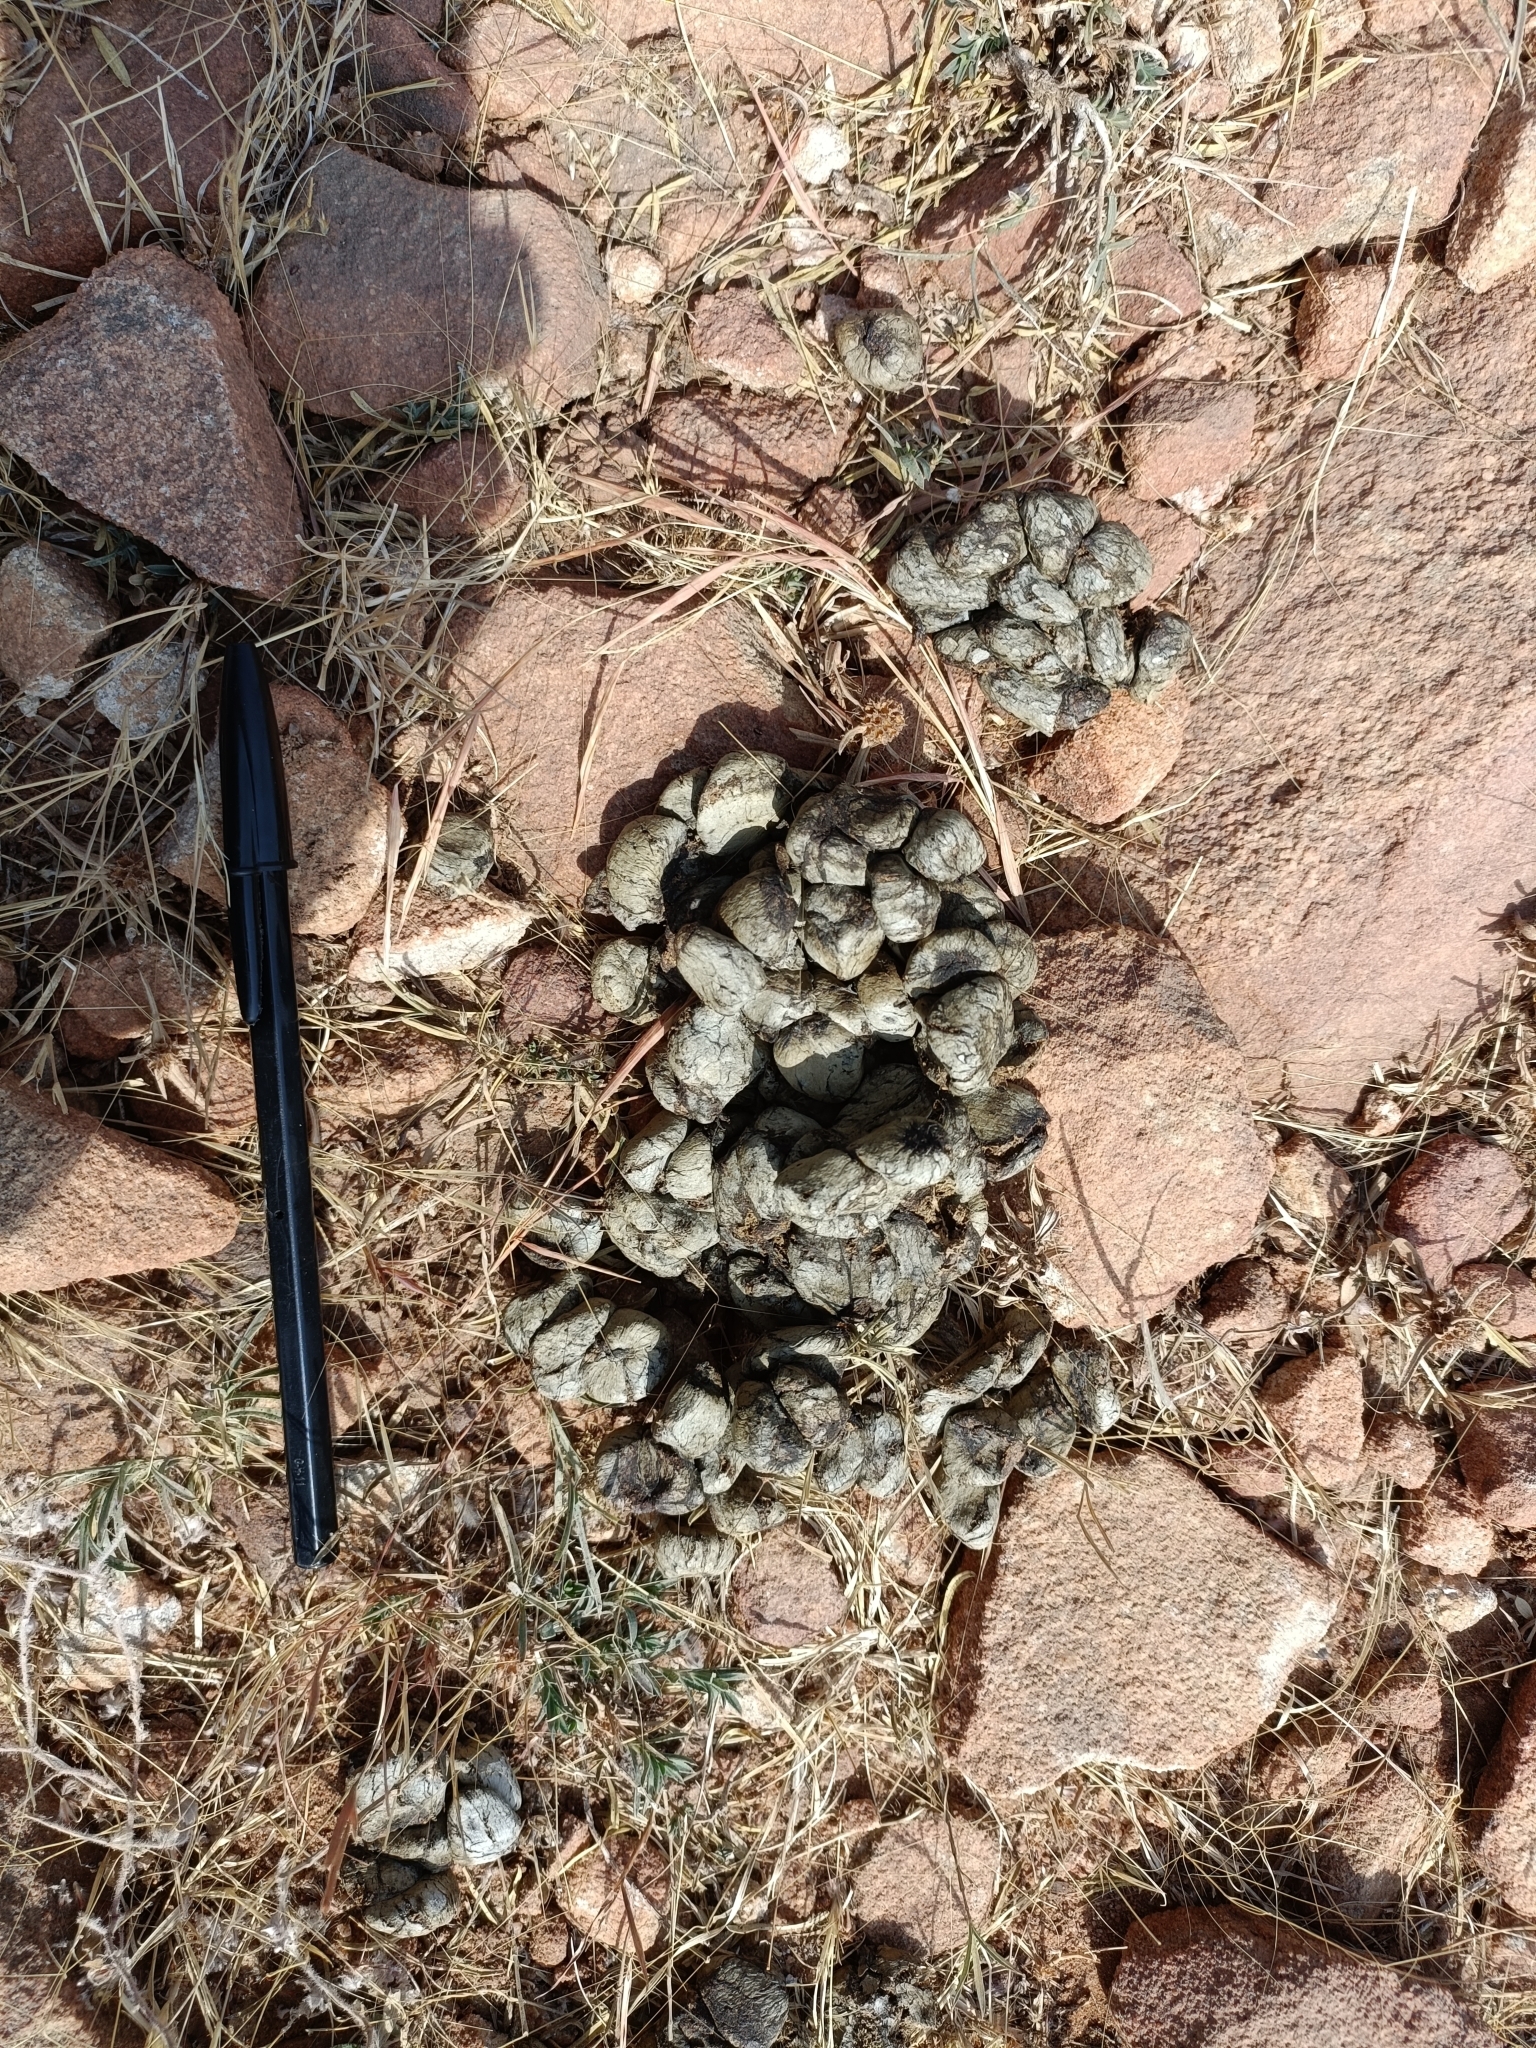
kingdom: Animalia
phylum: Chordata
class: Mammalia
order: Artiodactyla
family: Bovidae
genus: Boselaphus
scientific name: Boselaphus tragocamelus
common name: Nilgai
